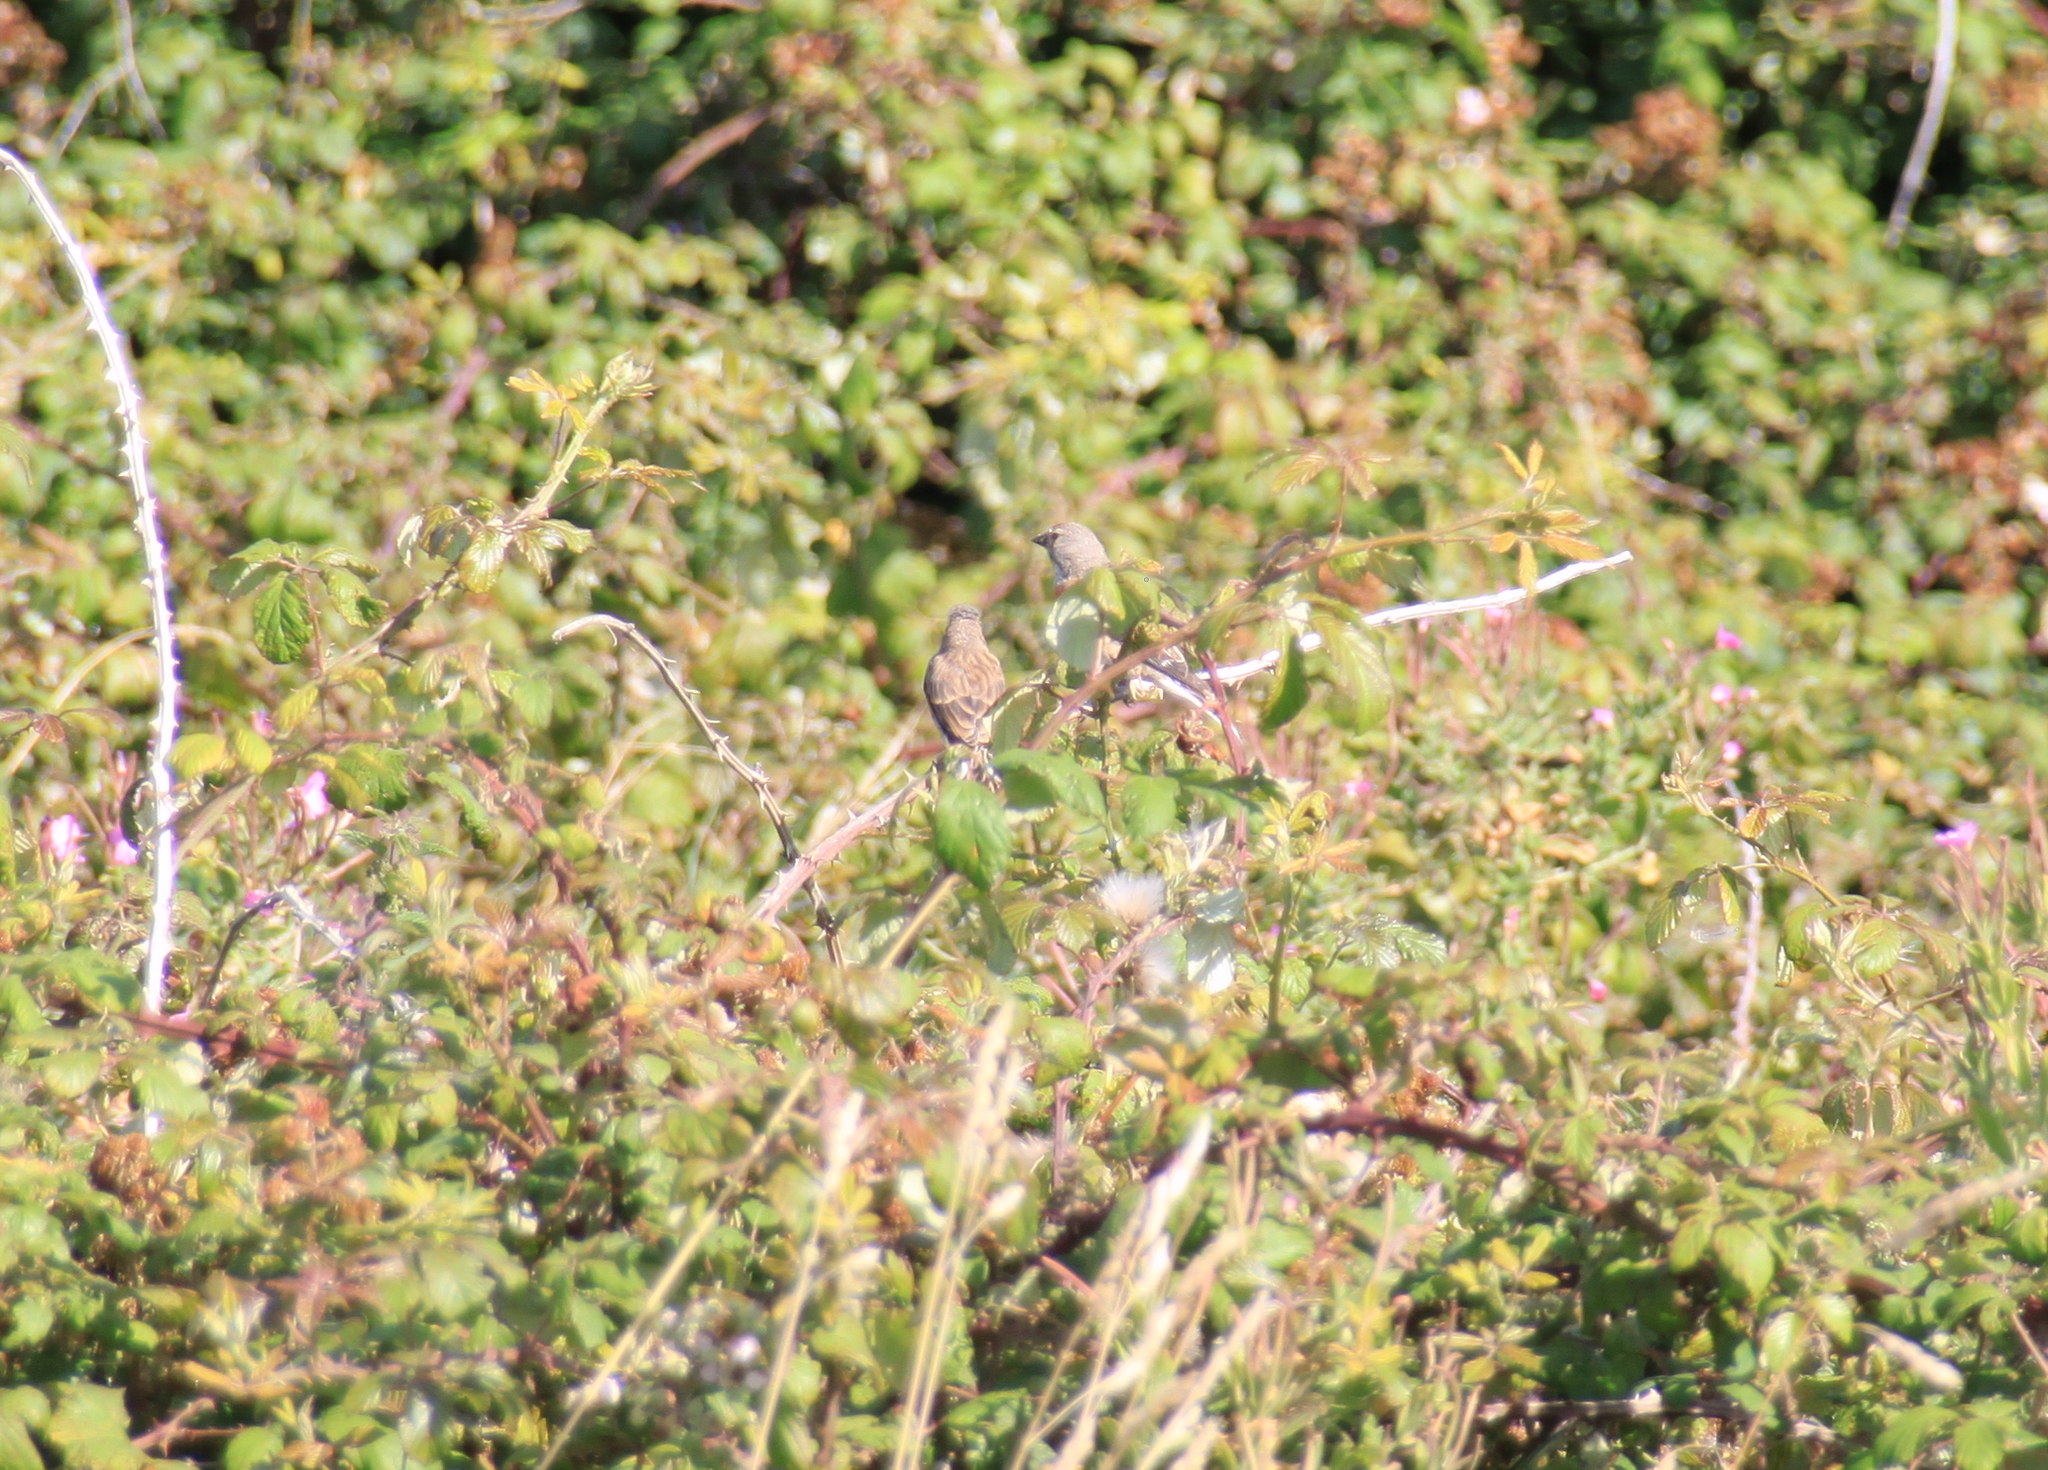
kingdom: Animalia
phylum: Chordata
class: Aves
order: Passeriformes
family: Fringillidae
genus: Linaria
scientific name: Linaria cannabina
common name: Common linnet
